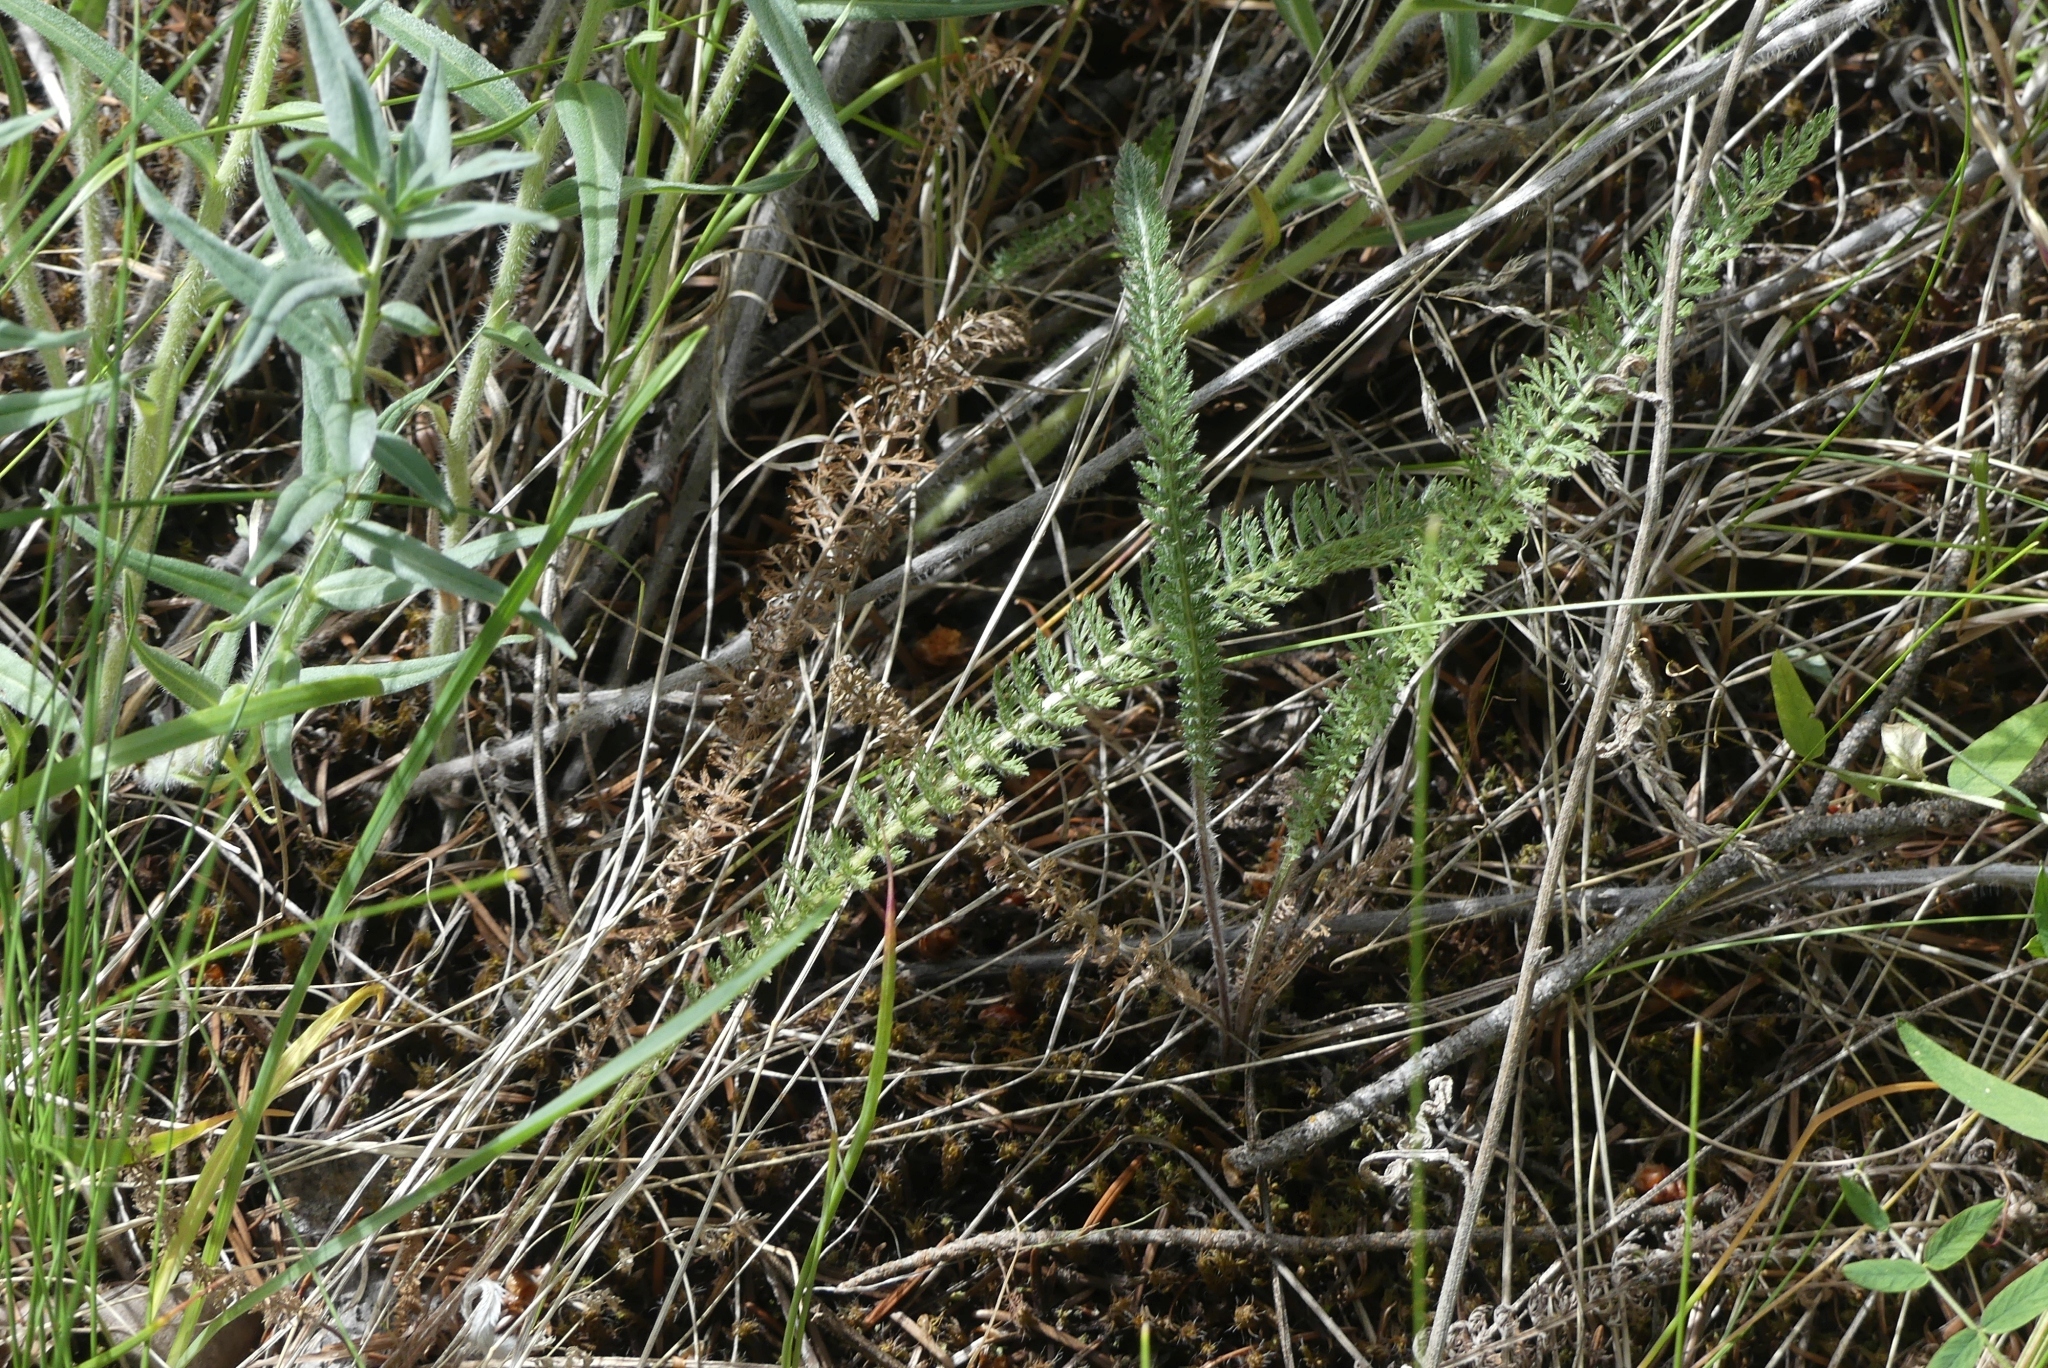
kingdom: Plantae
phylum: Tracheophyta
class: Magnoliopsida
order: Asterales
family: Asteraceae
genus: Achillea
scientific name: Achillea millefolium
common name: Yarrow
